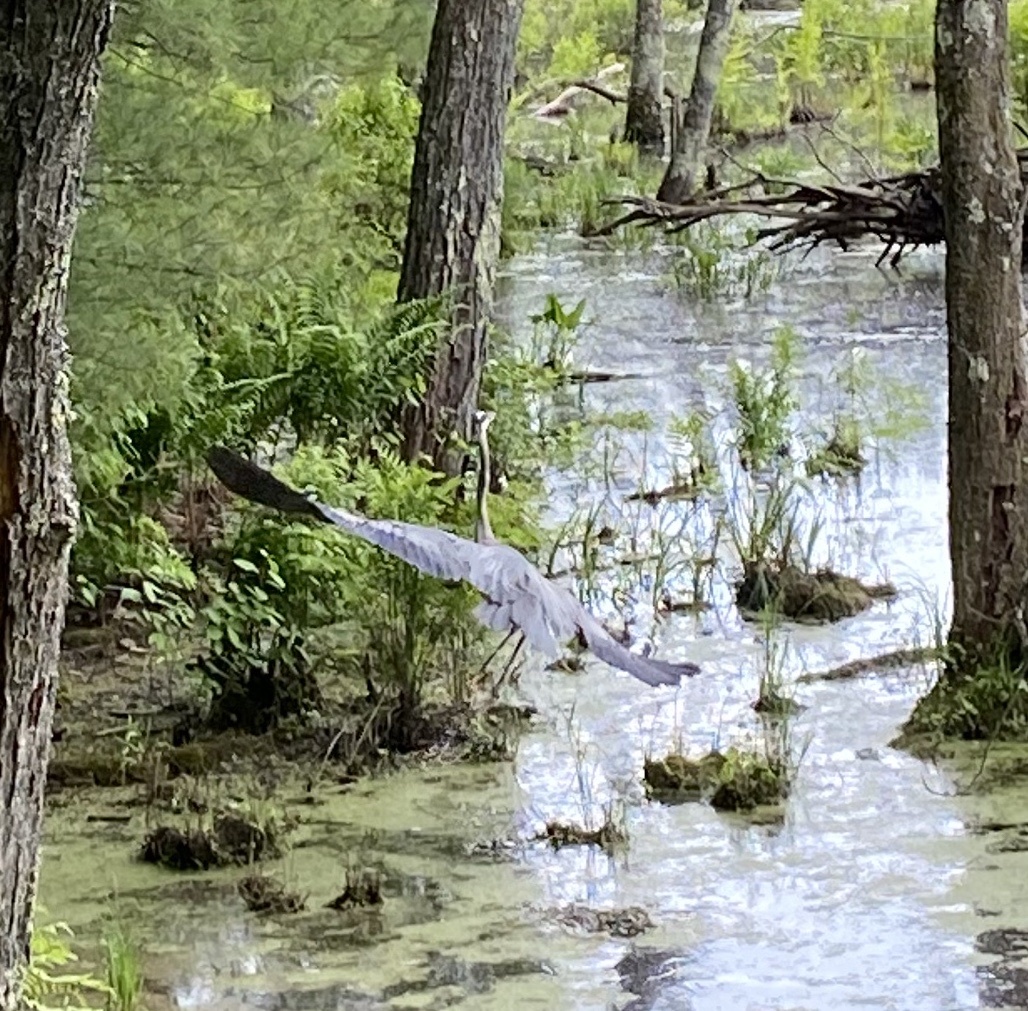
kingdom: Animalia
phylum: Chordata
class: Aves
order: Pelecaniformes
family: Ardeidae
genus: Ardea
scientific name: Ardea herodias
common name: Great blue heron
